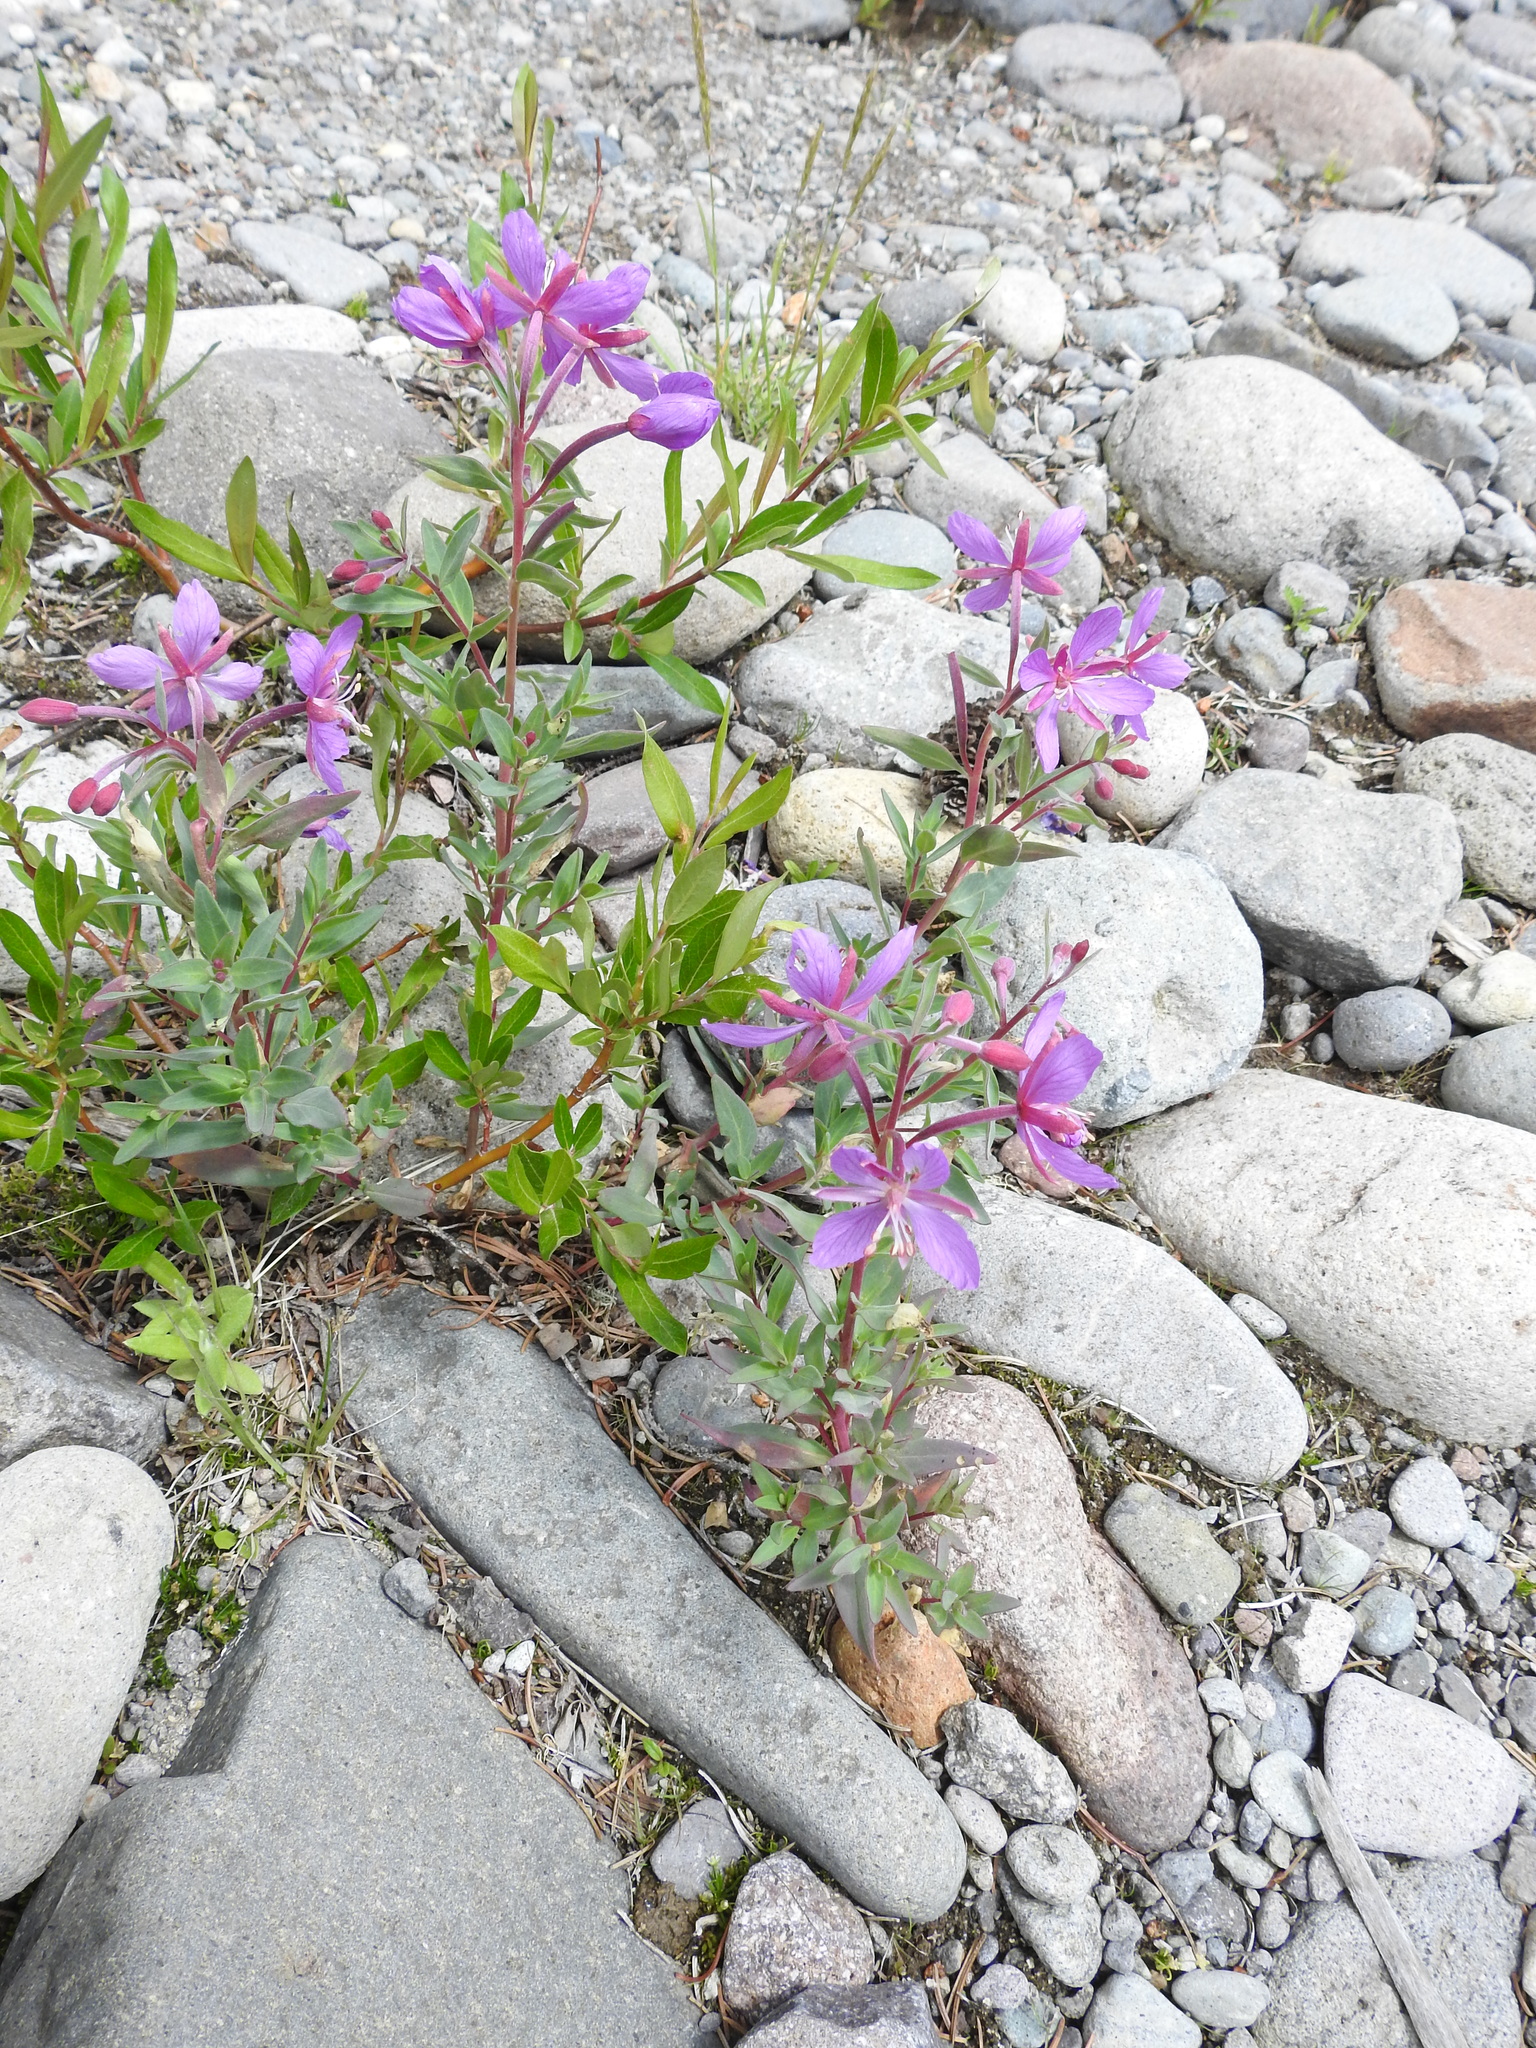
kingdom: Plantae
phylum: Tracheophyta
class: Magnoliopsida
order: Myrtales
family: Onagraceae
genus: Chamaenerion
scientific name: Chamaenerion latifolium
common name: Dwarf fireweed
